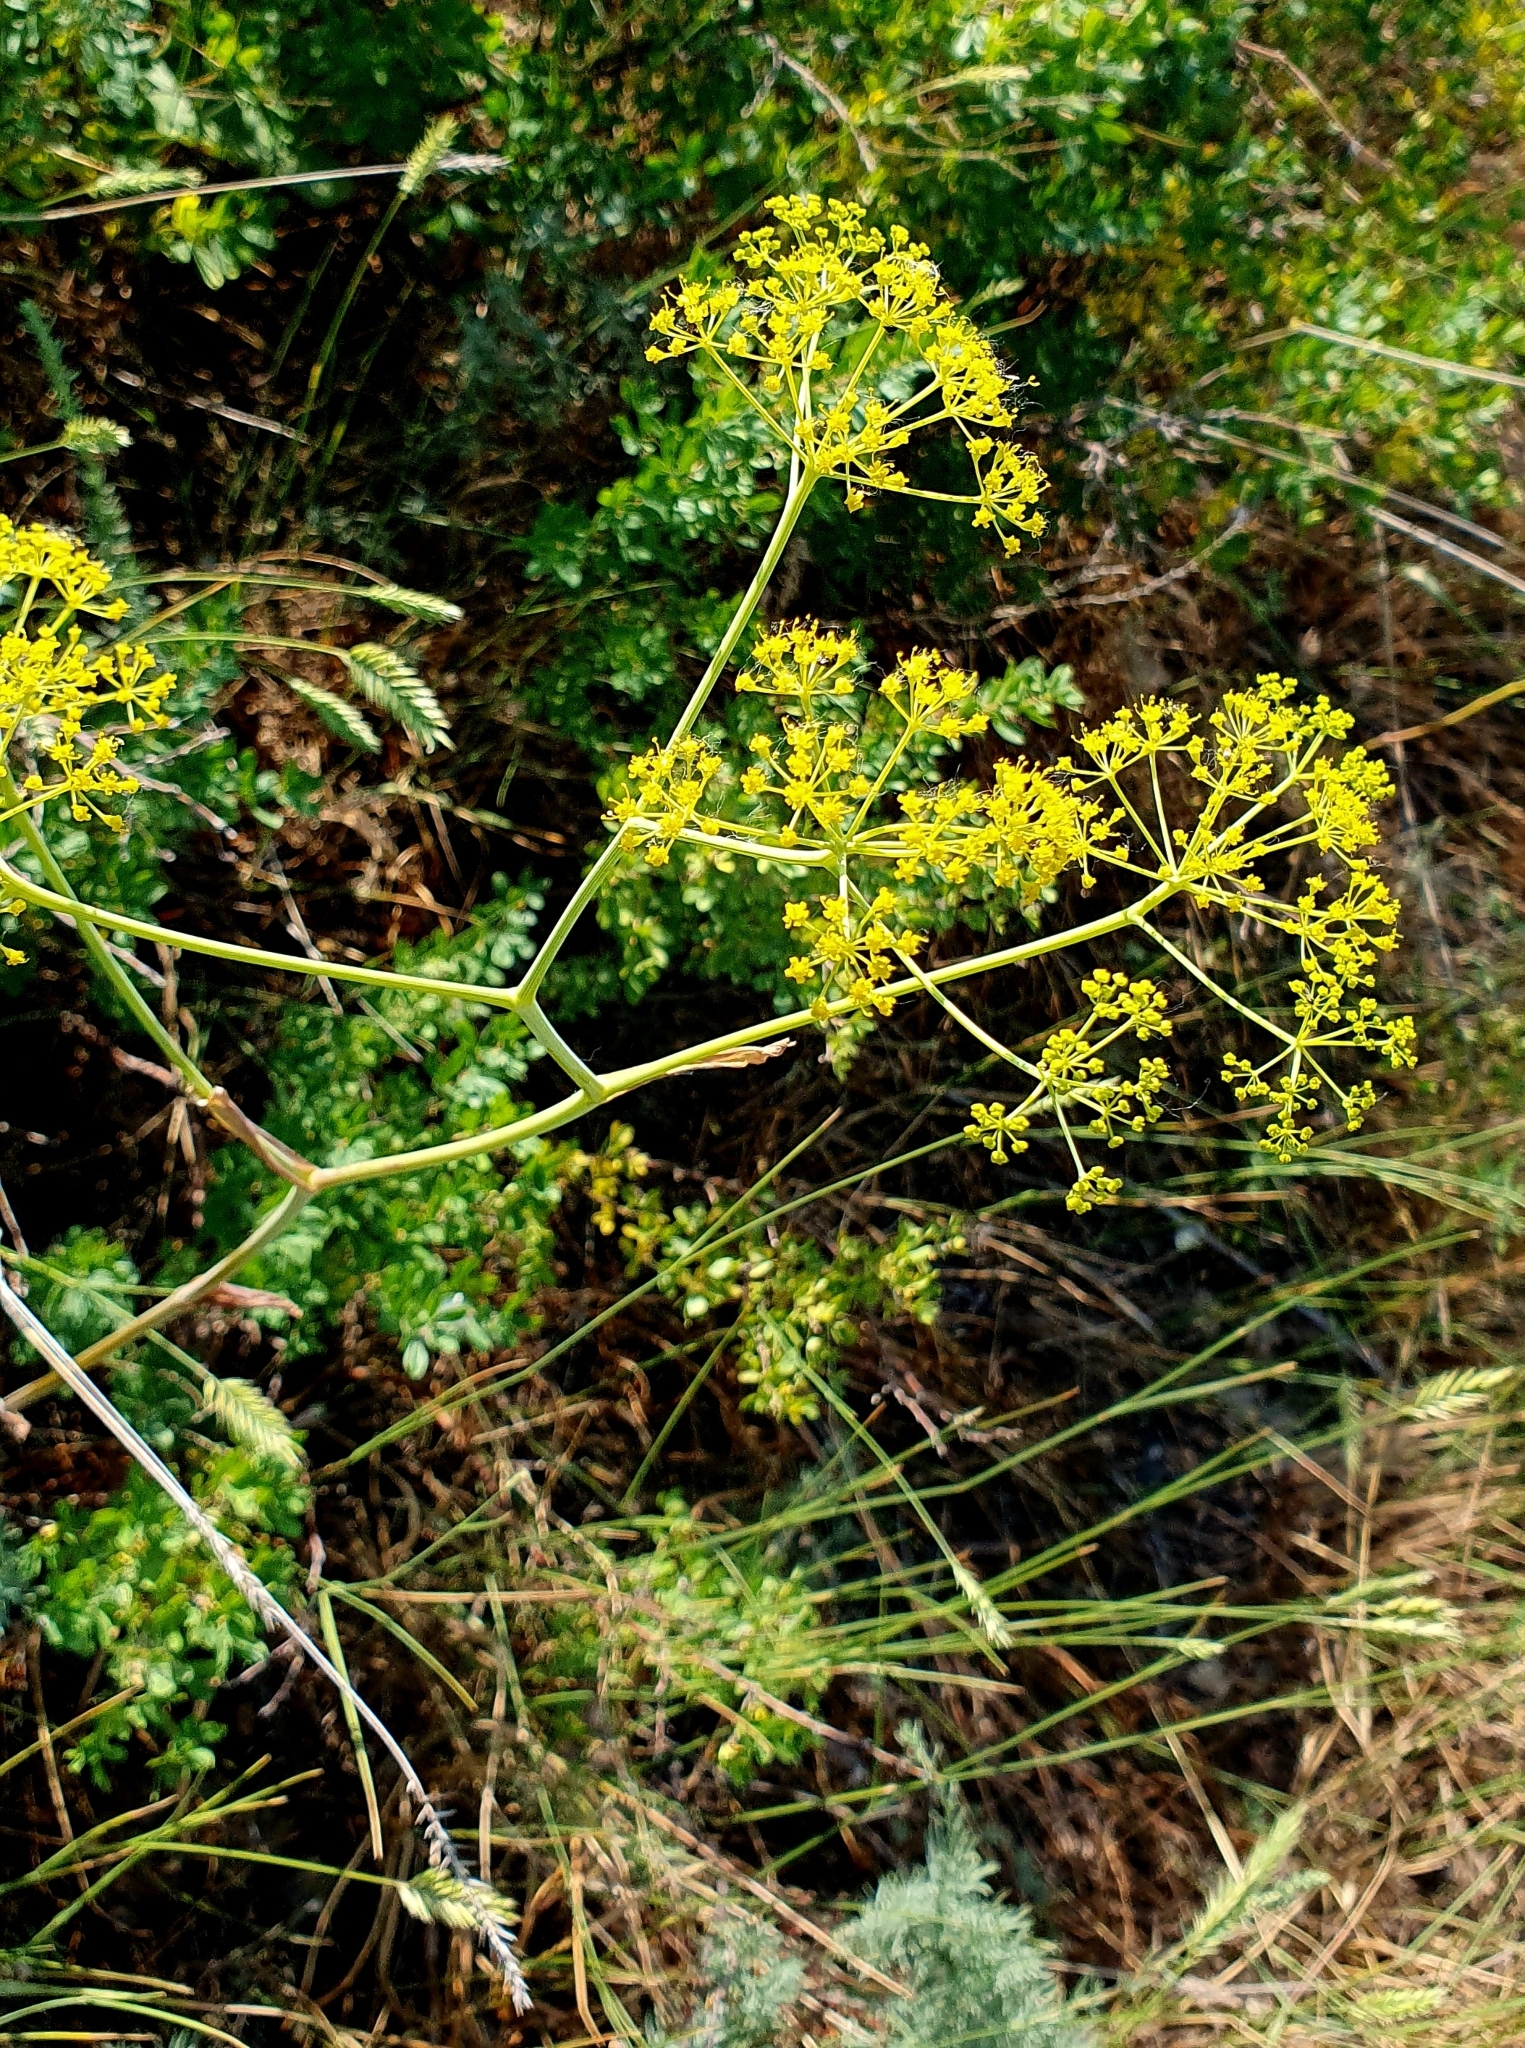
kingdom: Plantae
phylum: Tracheophyta
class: Magnoliopsida
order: Apiales
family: Apiaceae
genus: Ferula
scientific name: Ferula tatarica
